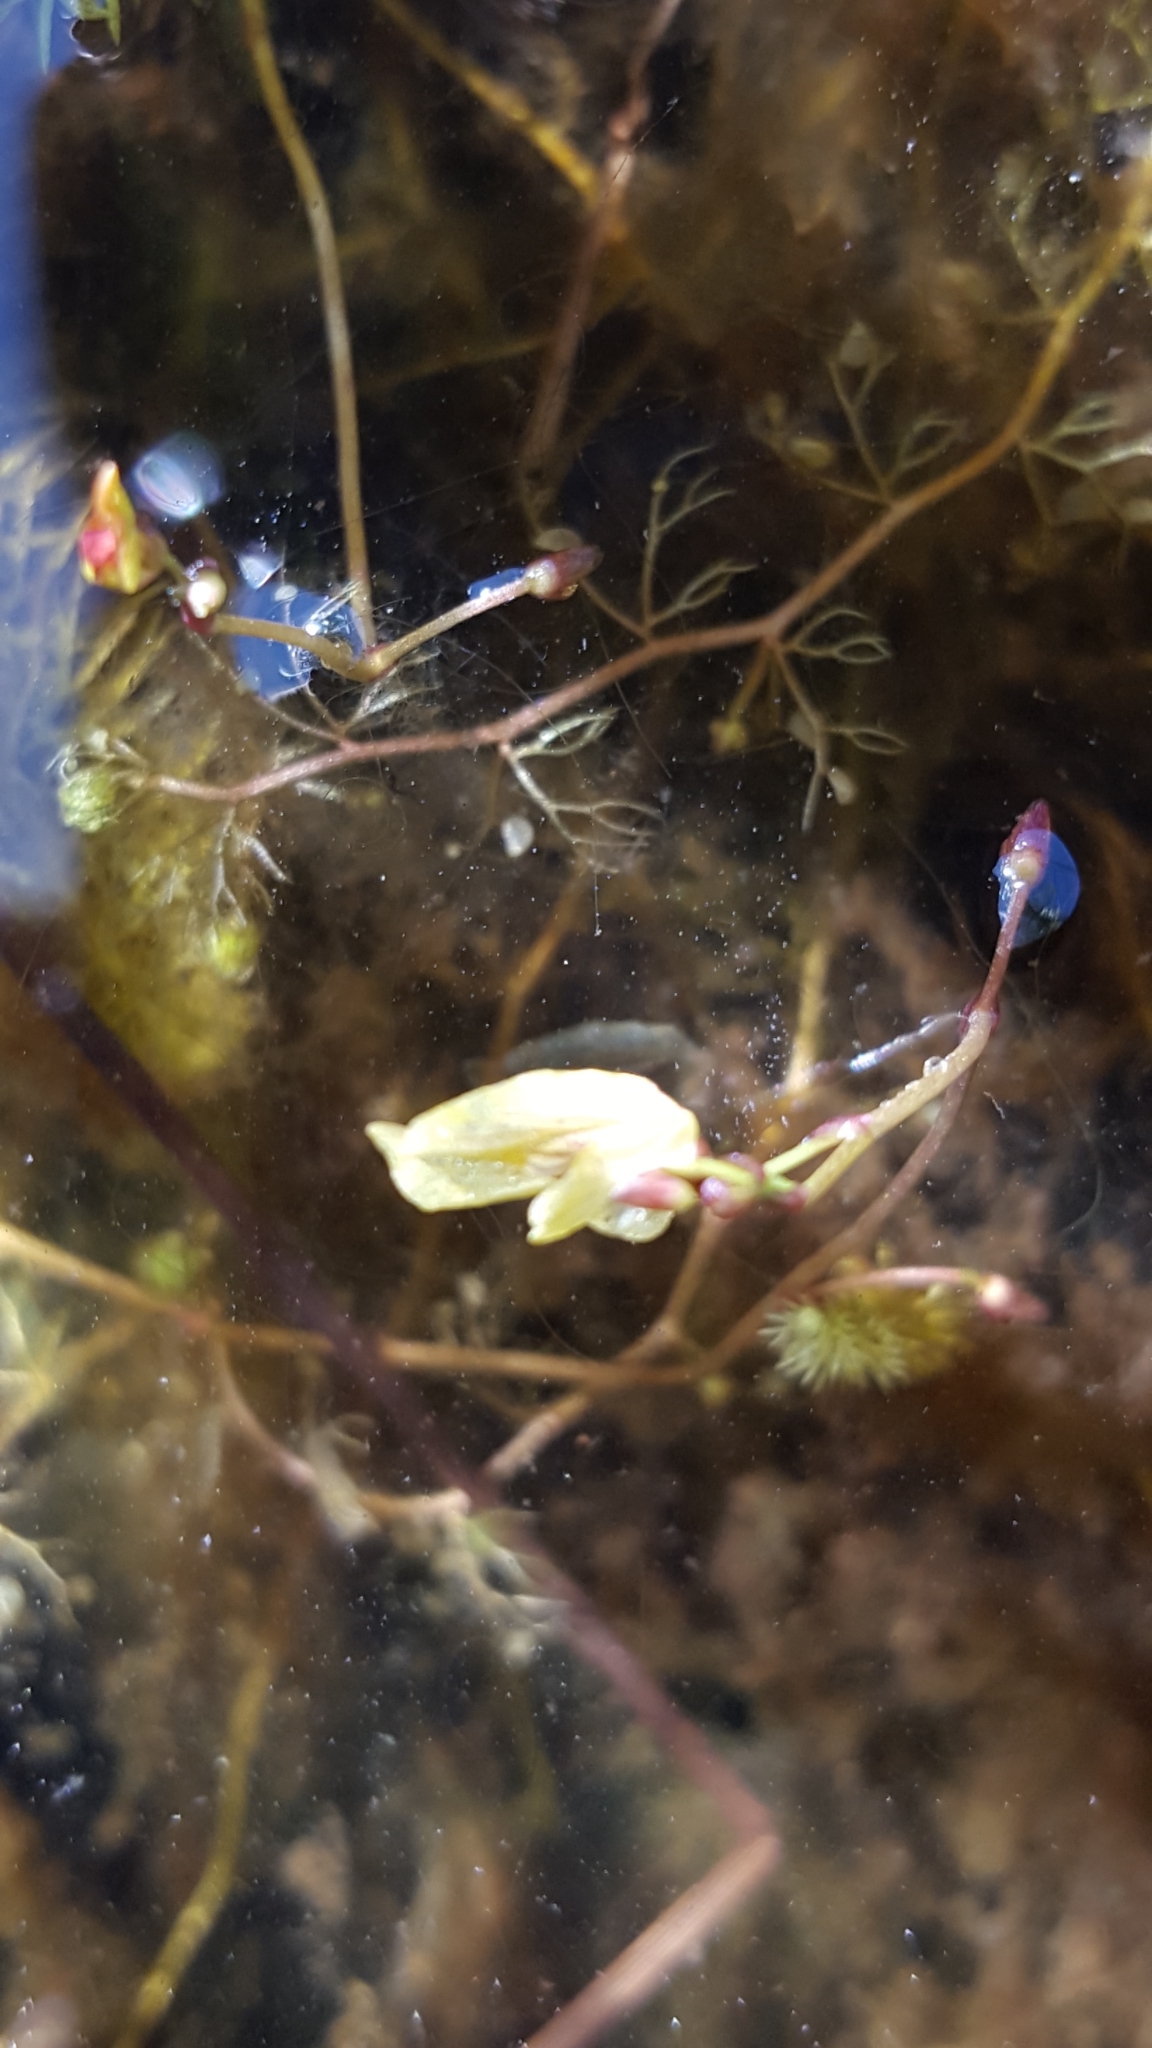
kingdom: Plantae
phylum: Tracheophyta
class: Magnoliopsida
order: Lamiales
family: Lentibulariaceae
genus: Utricularia
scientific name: Utricularia minor
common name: Lesser bladderwort
